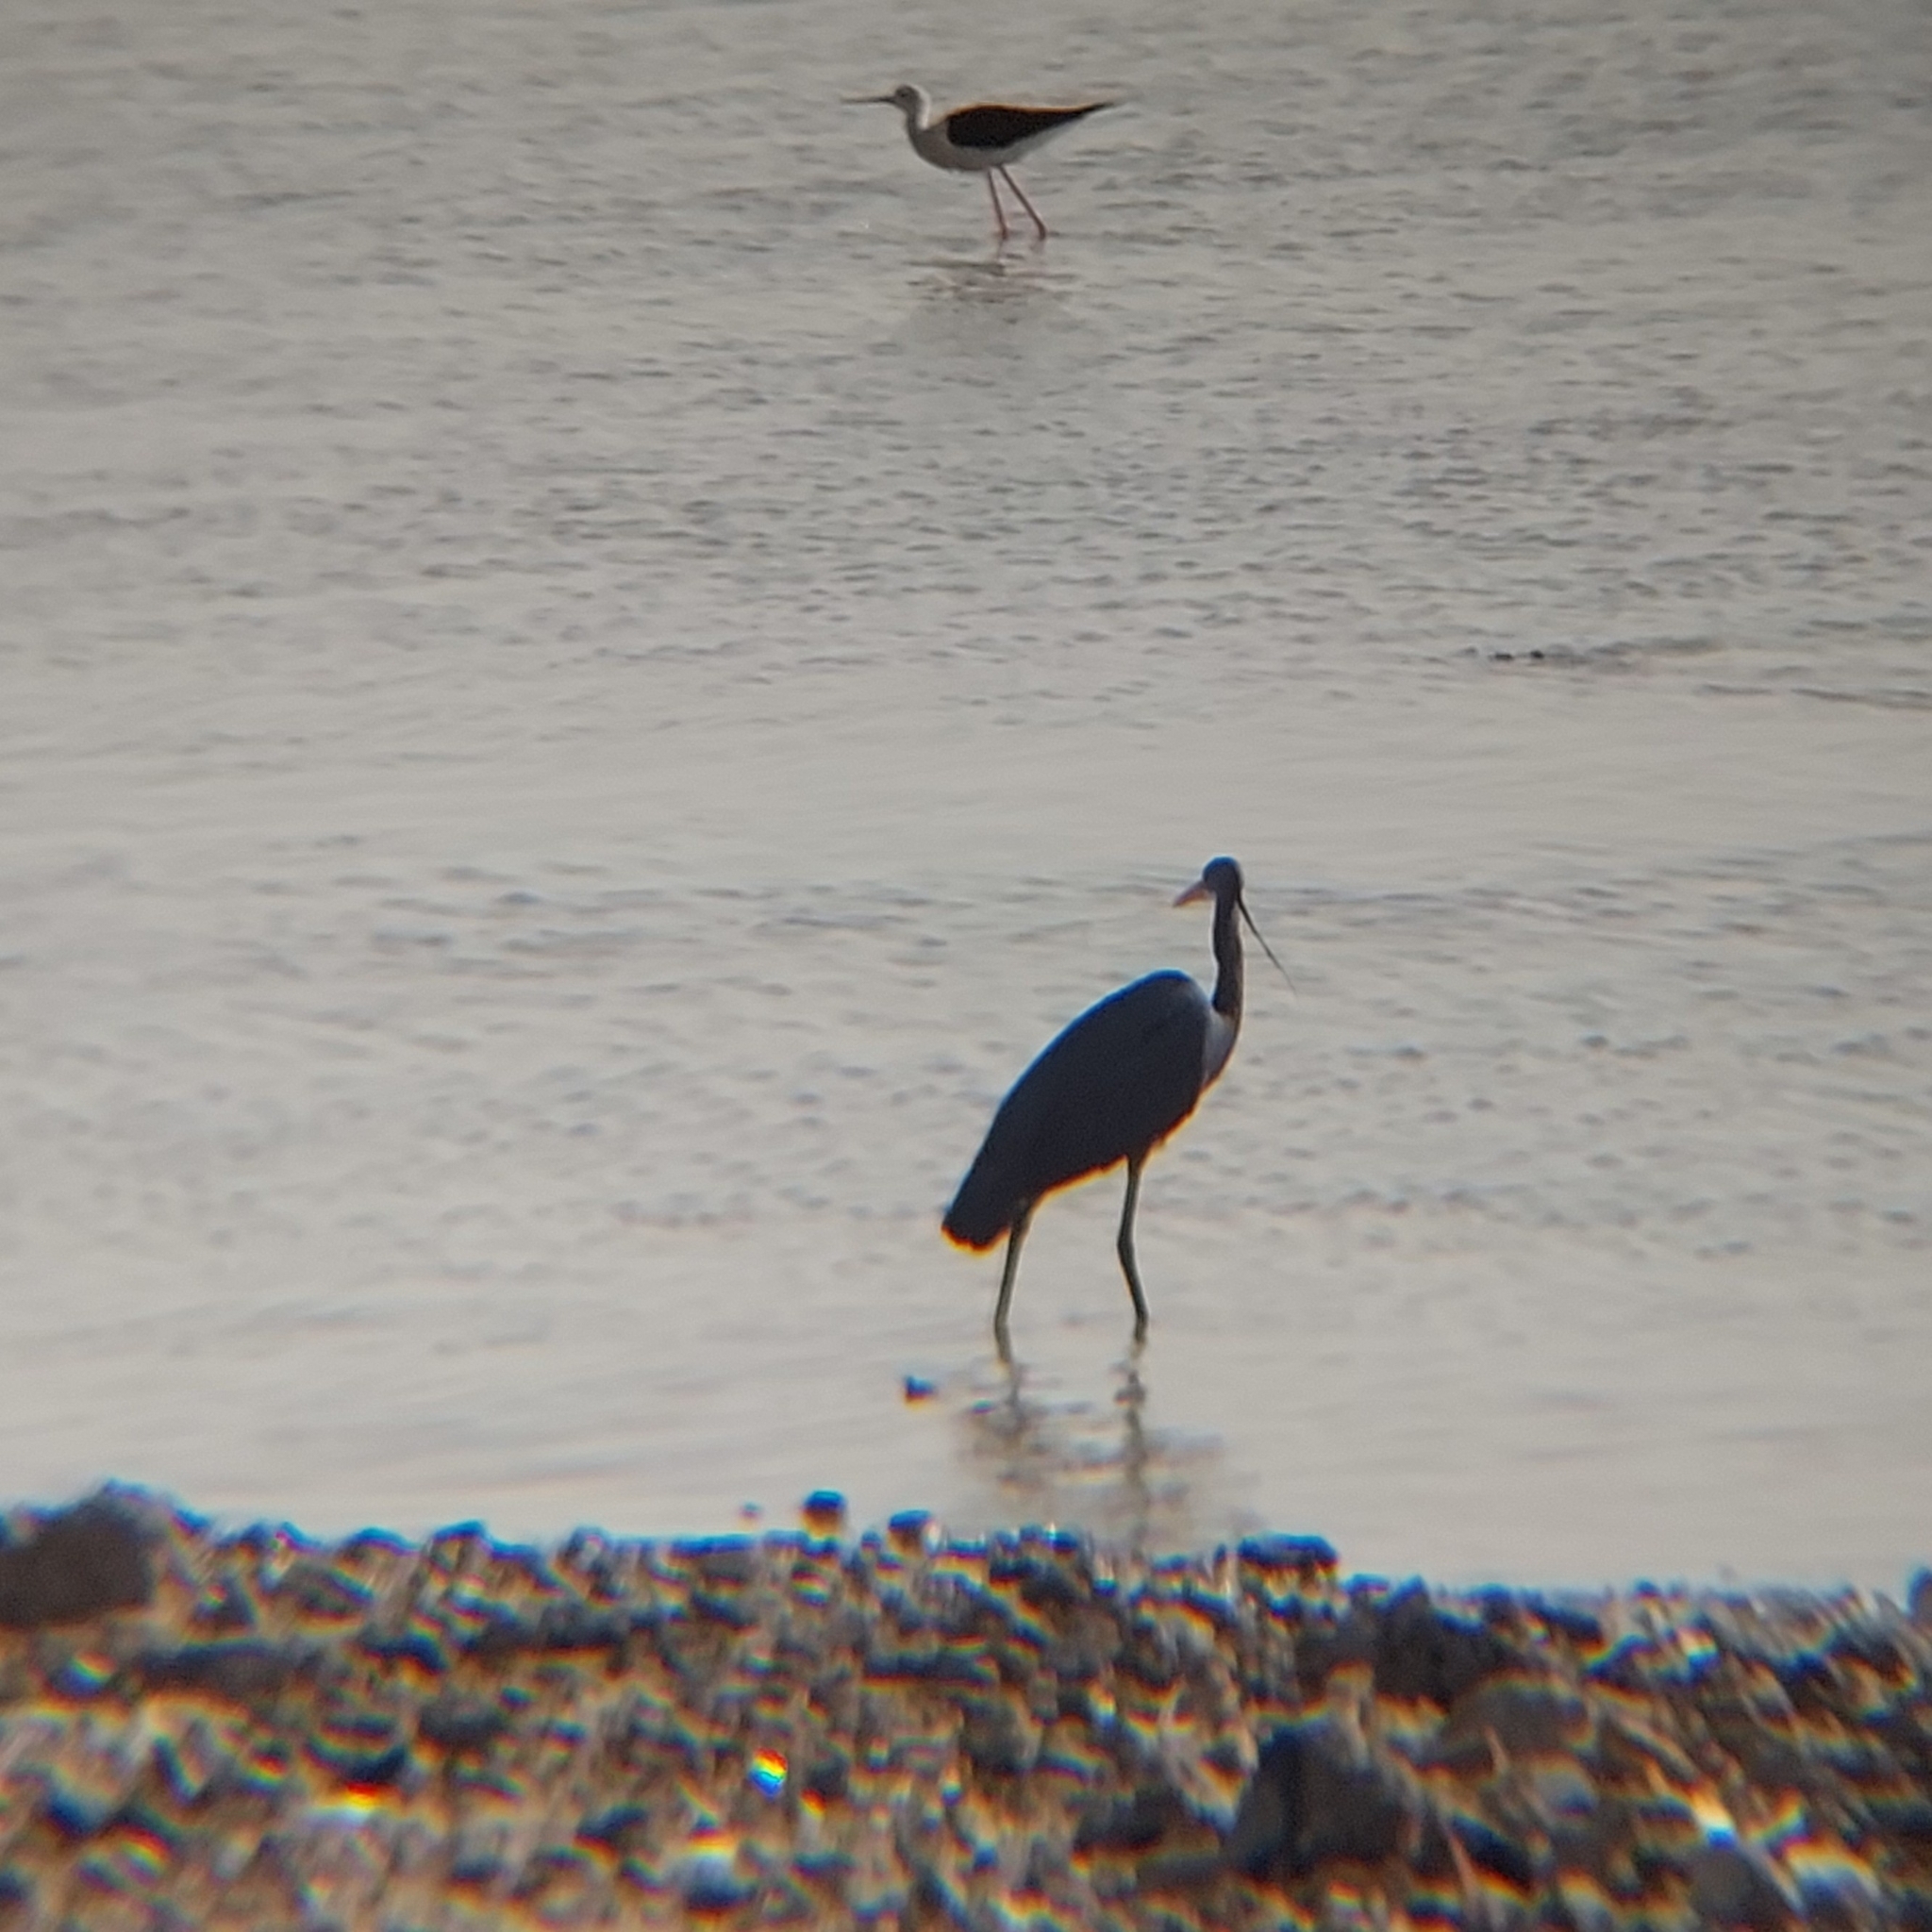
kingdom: Animalia
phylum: Chordata
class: Aves
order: Pelecaniformes
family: Ardeidae
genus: Egretta
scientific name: Egretta gularis
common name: Western reef-heron
